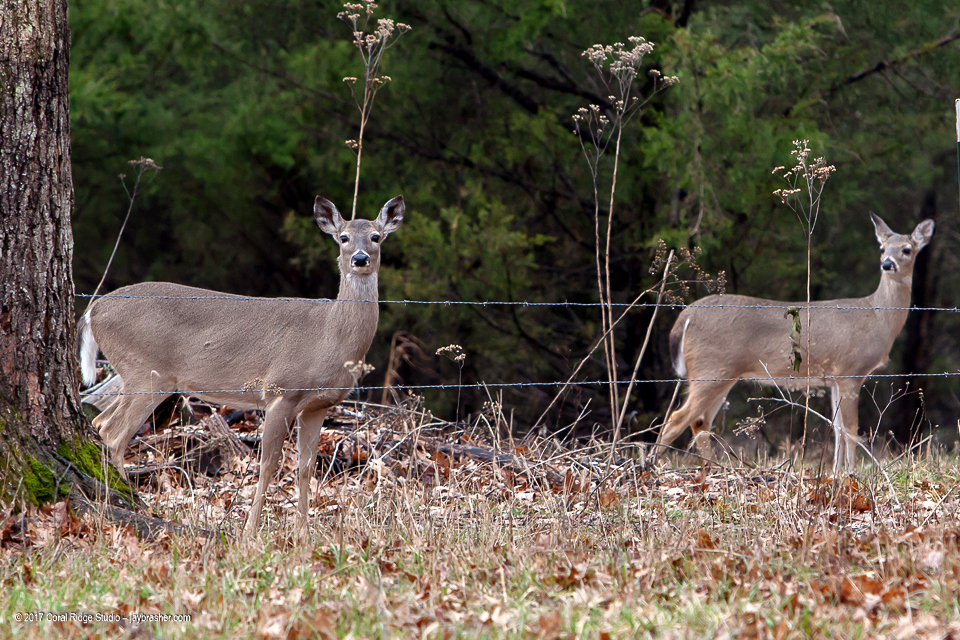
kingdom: Animalia
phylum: Chordata
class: Mammalia
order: Artiodactyla
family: Cervidae
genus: Odocoileus
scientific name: Odocoileus virginianus
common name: White-tailed deer
